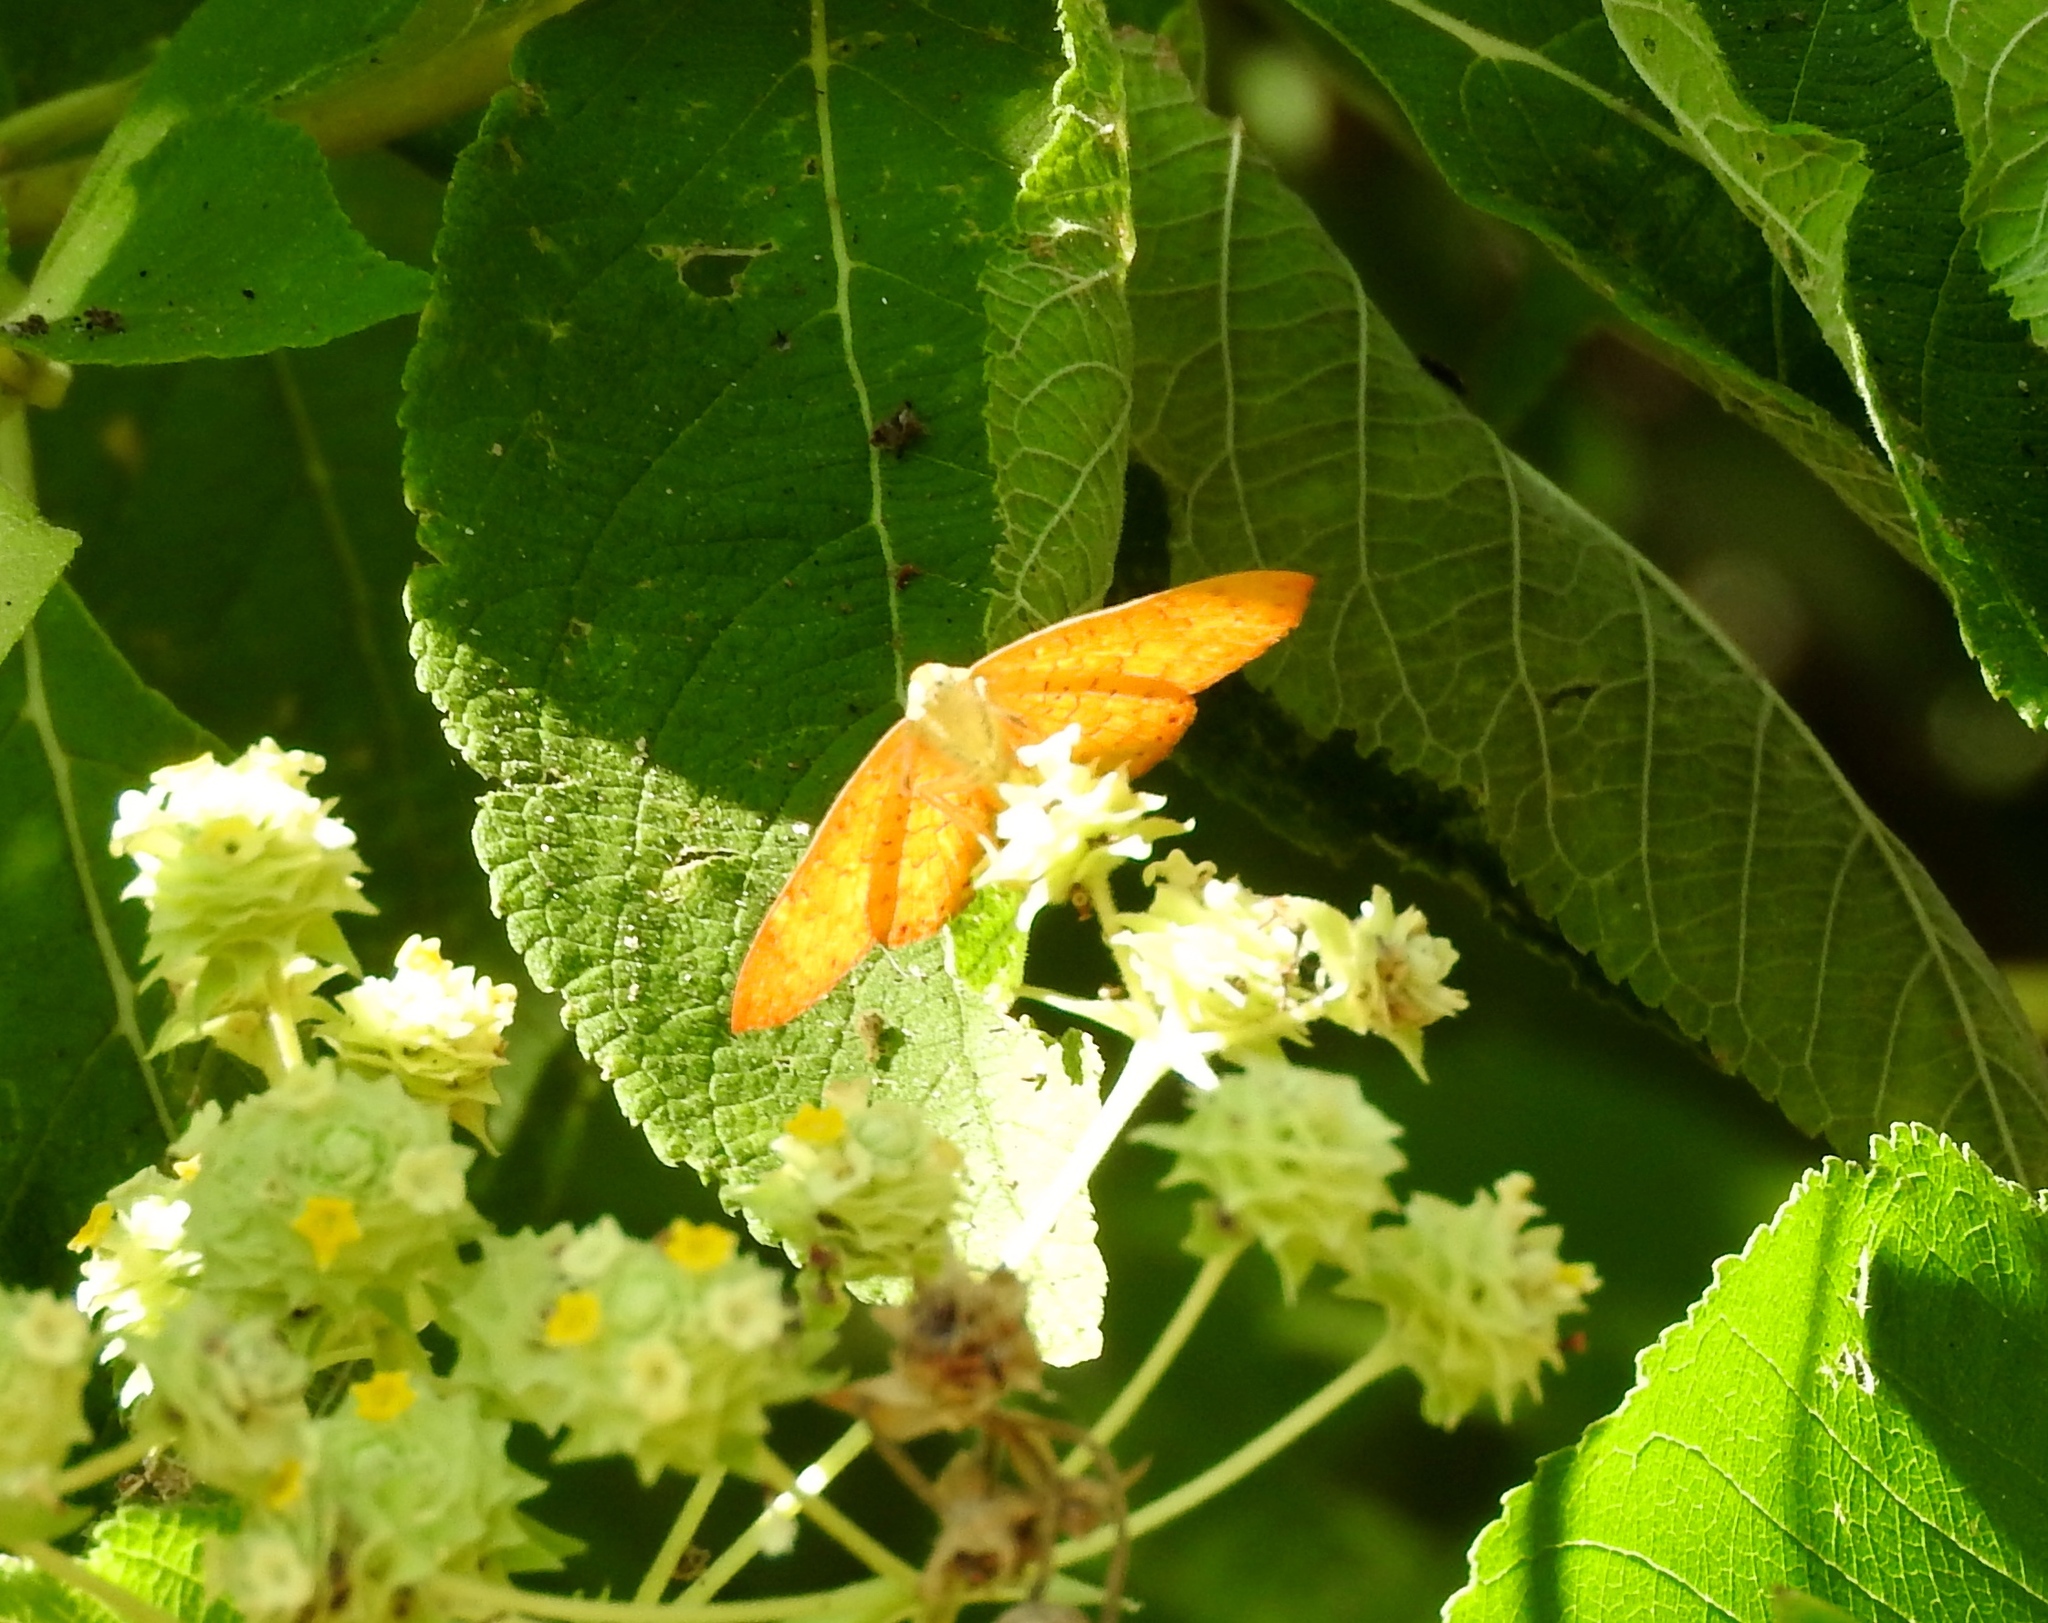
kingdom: Animalia
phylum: Arthropoda
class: Insecta
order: Lepidoptera
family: Lycaenidae
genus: Emesis
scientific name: Emesis
